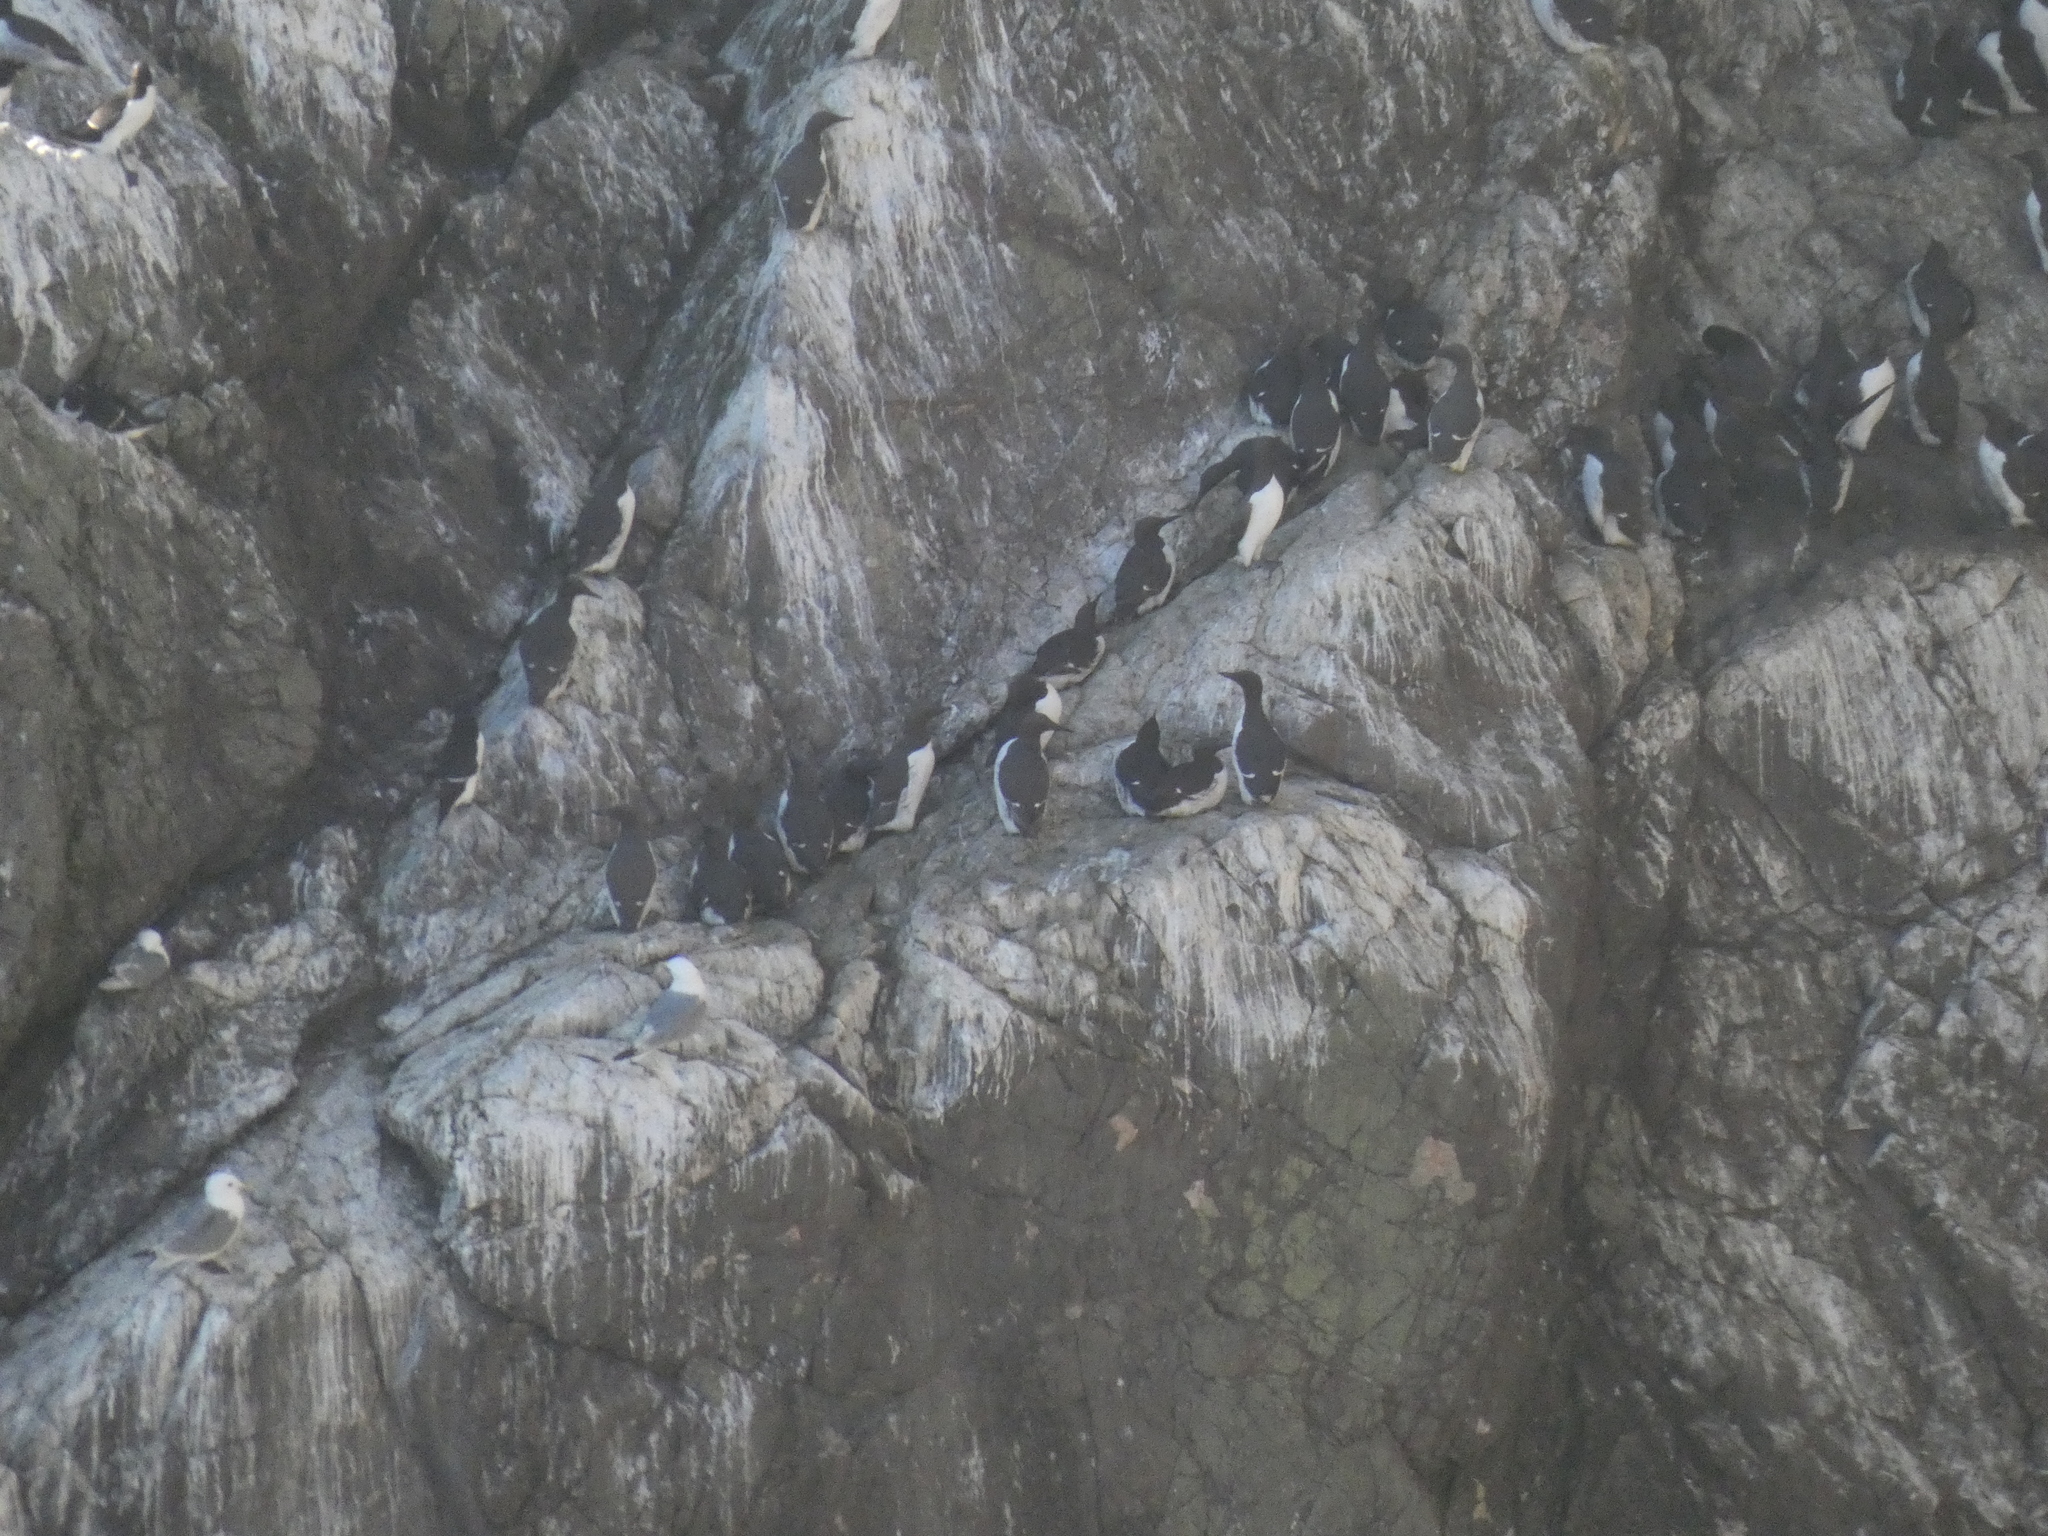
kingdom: Animalia
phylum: Chordata
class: Aves
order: Charadriiformes
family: Alcidae
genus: Uria
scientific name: Uria aalge
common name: Common murre
